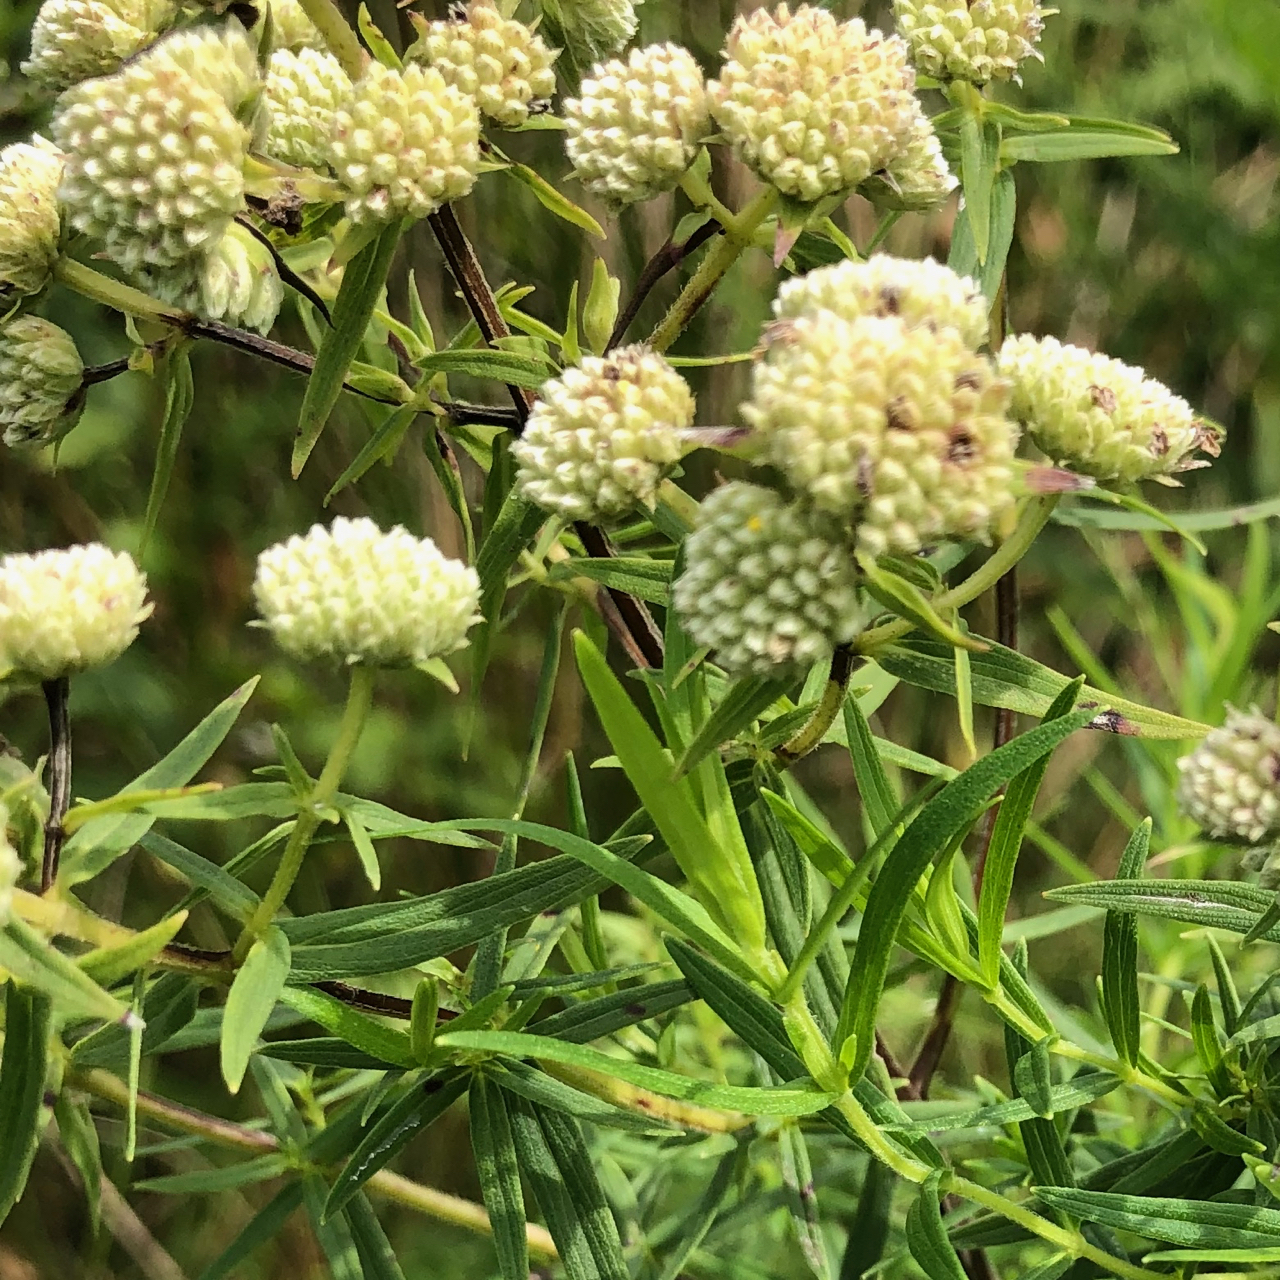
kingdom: Plantae
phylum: Tracheophyta
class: Magnoliopsida
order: Lamiales
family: Lamiaceae
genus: Pycnanthemum
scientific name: Pycnanthemum virginianum
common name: Virginia mountain-mint
